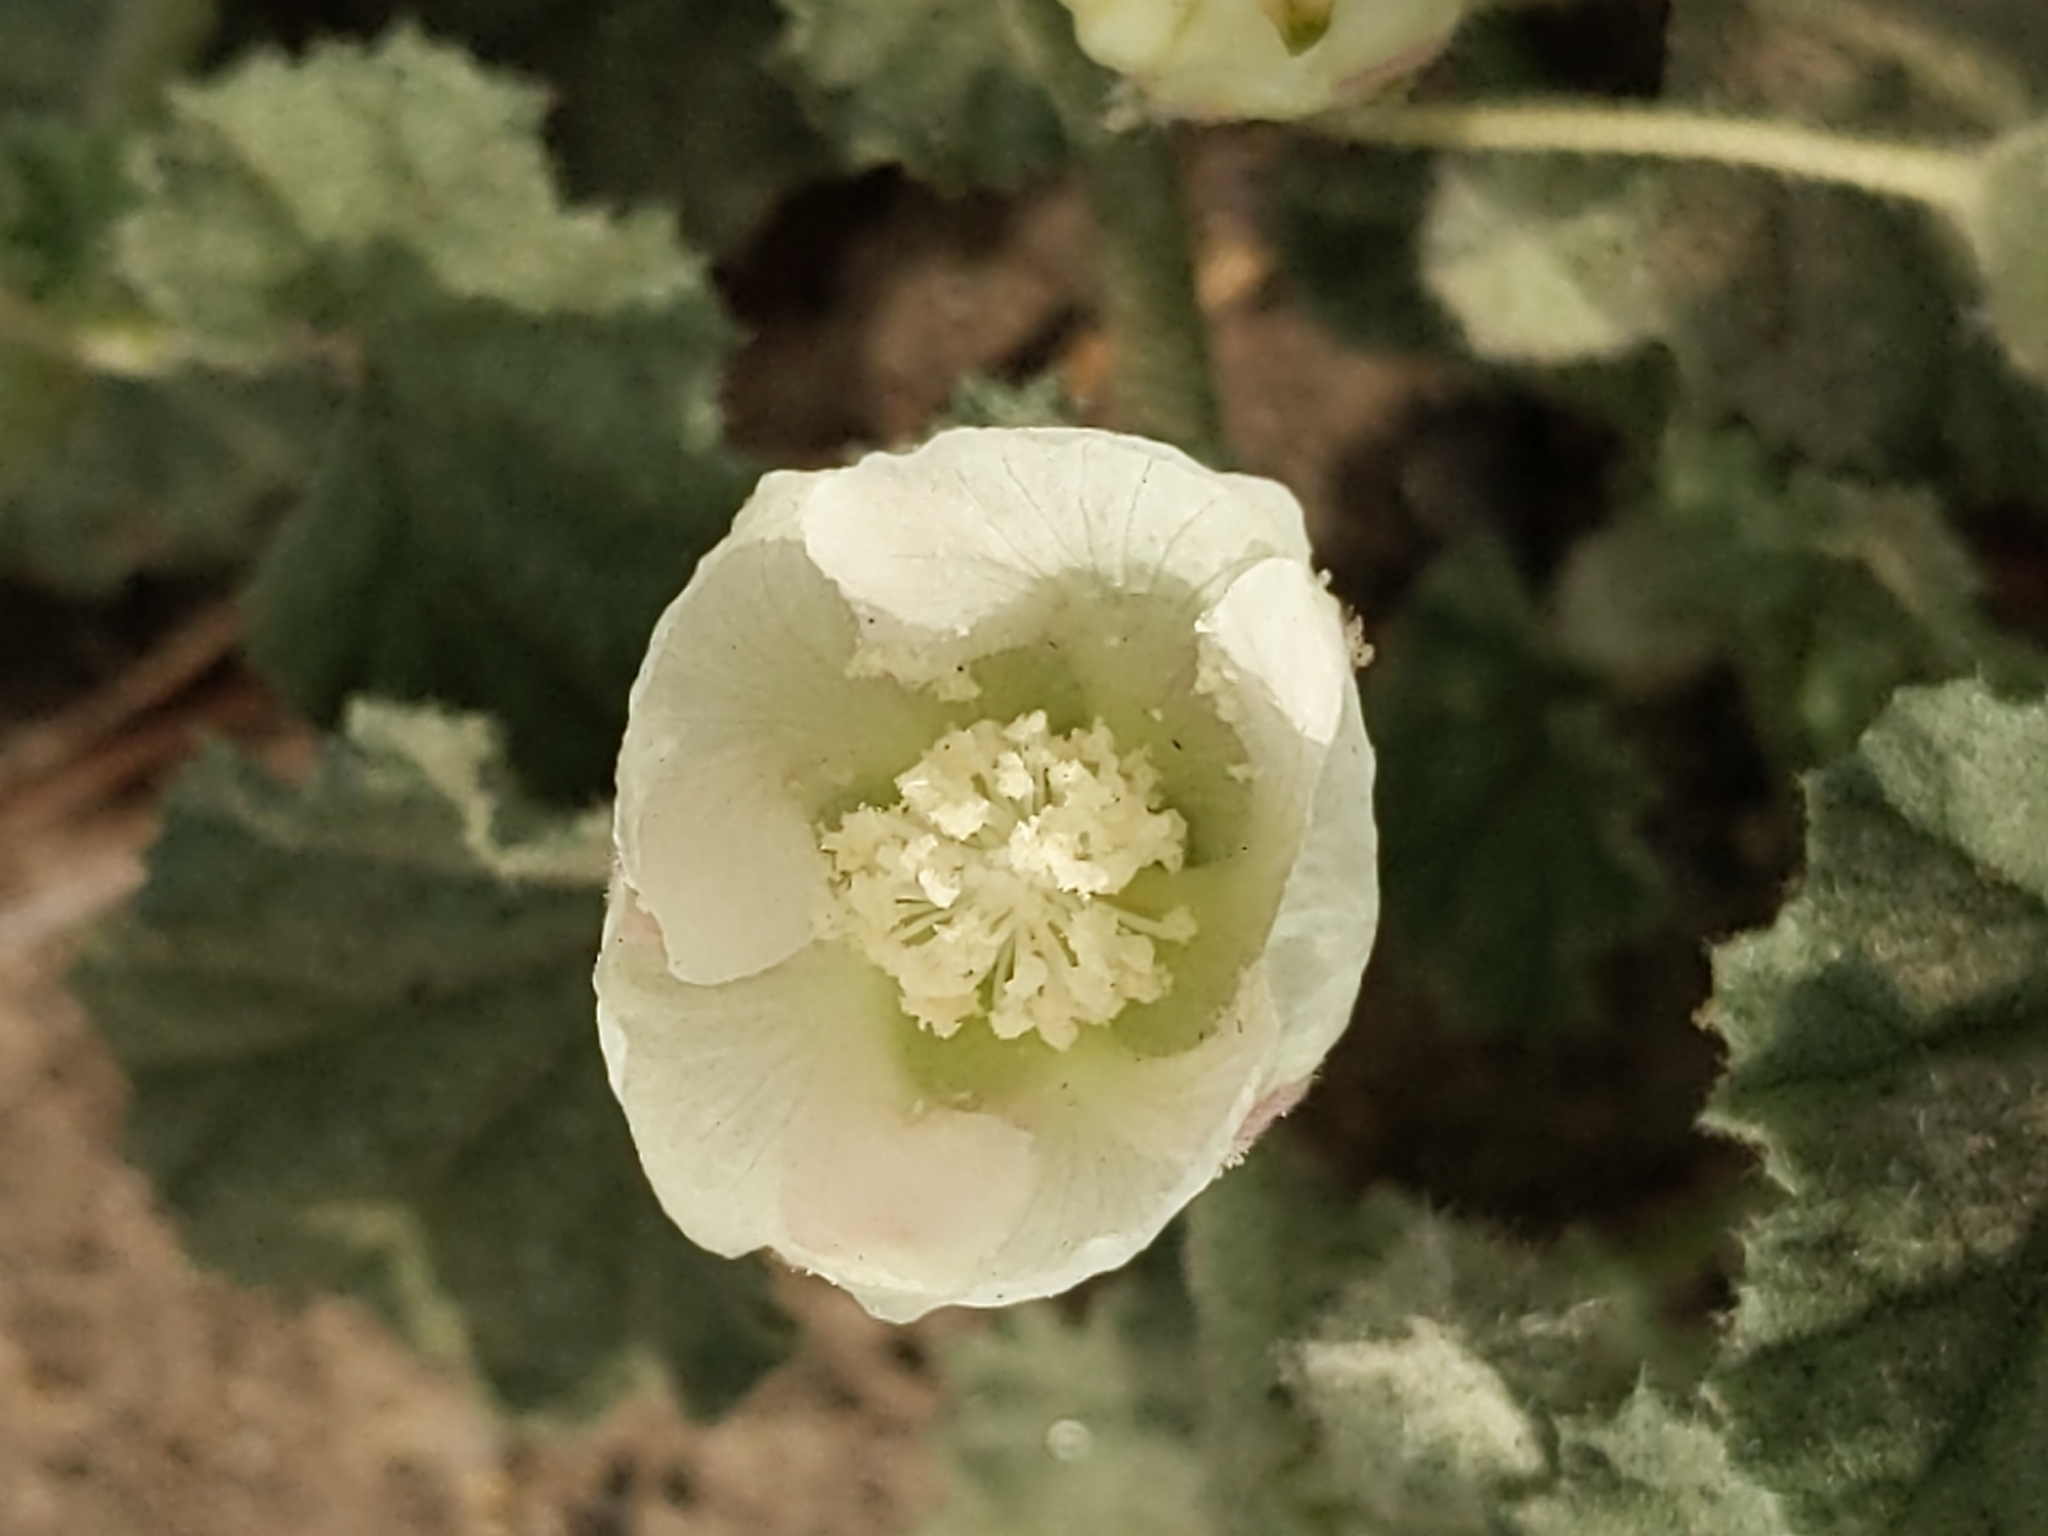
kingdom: Plantae
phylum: Tracheophyta
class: Magnoliopsida
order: Malvales
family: Malvaceae
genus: Malvella
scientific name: Malvella leprosa
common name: Alkali-mallow
